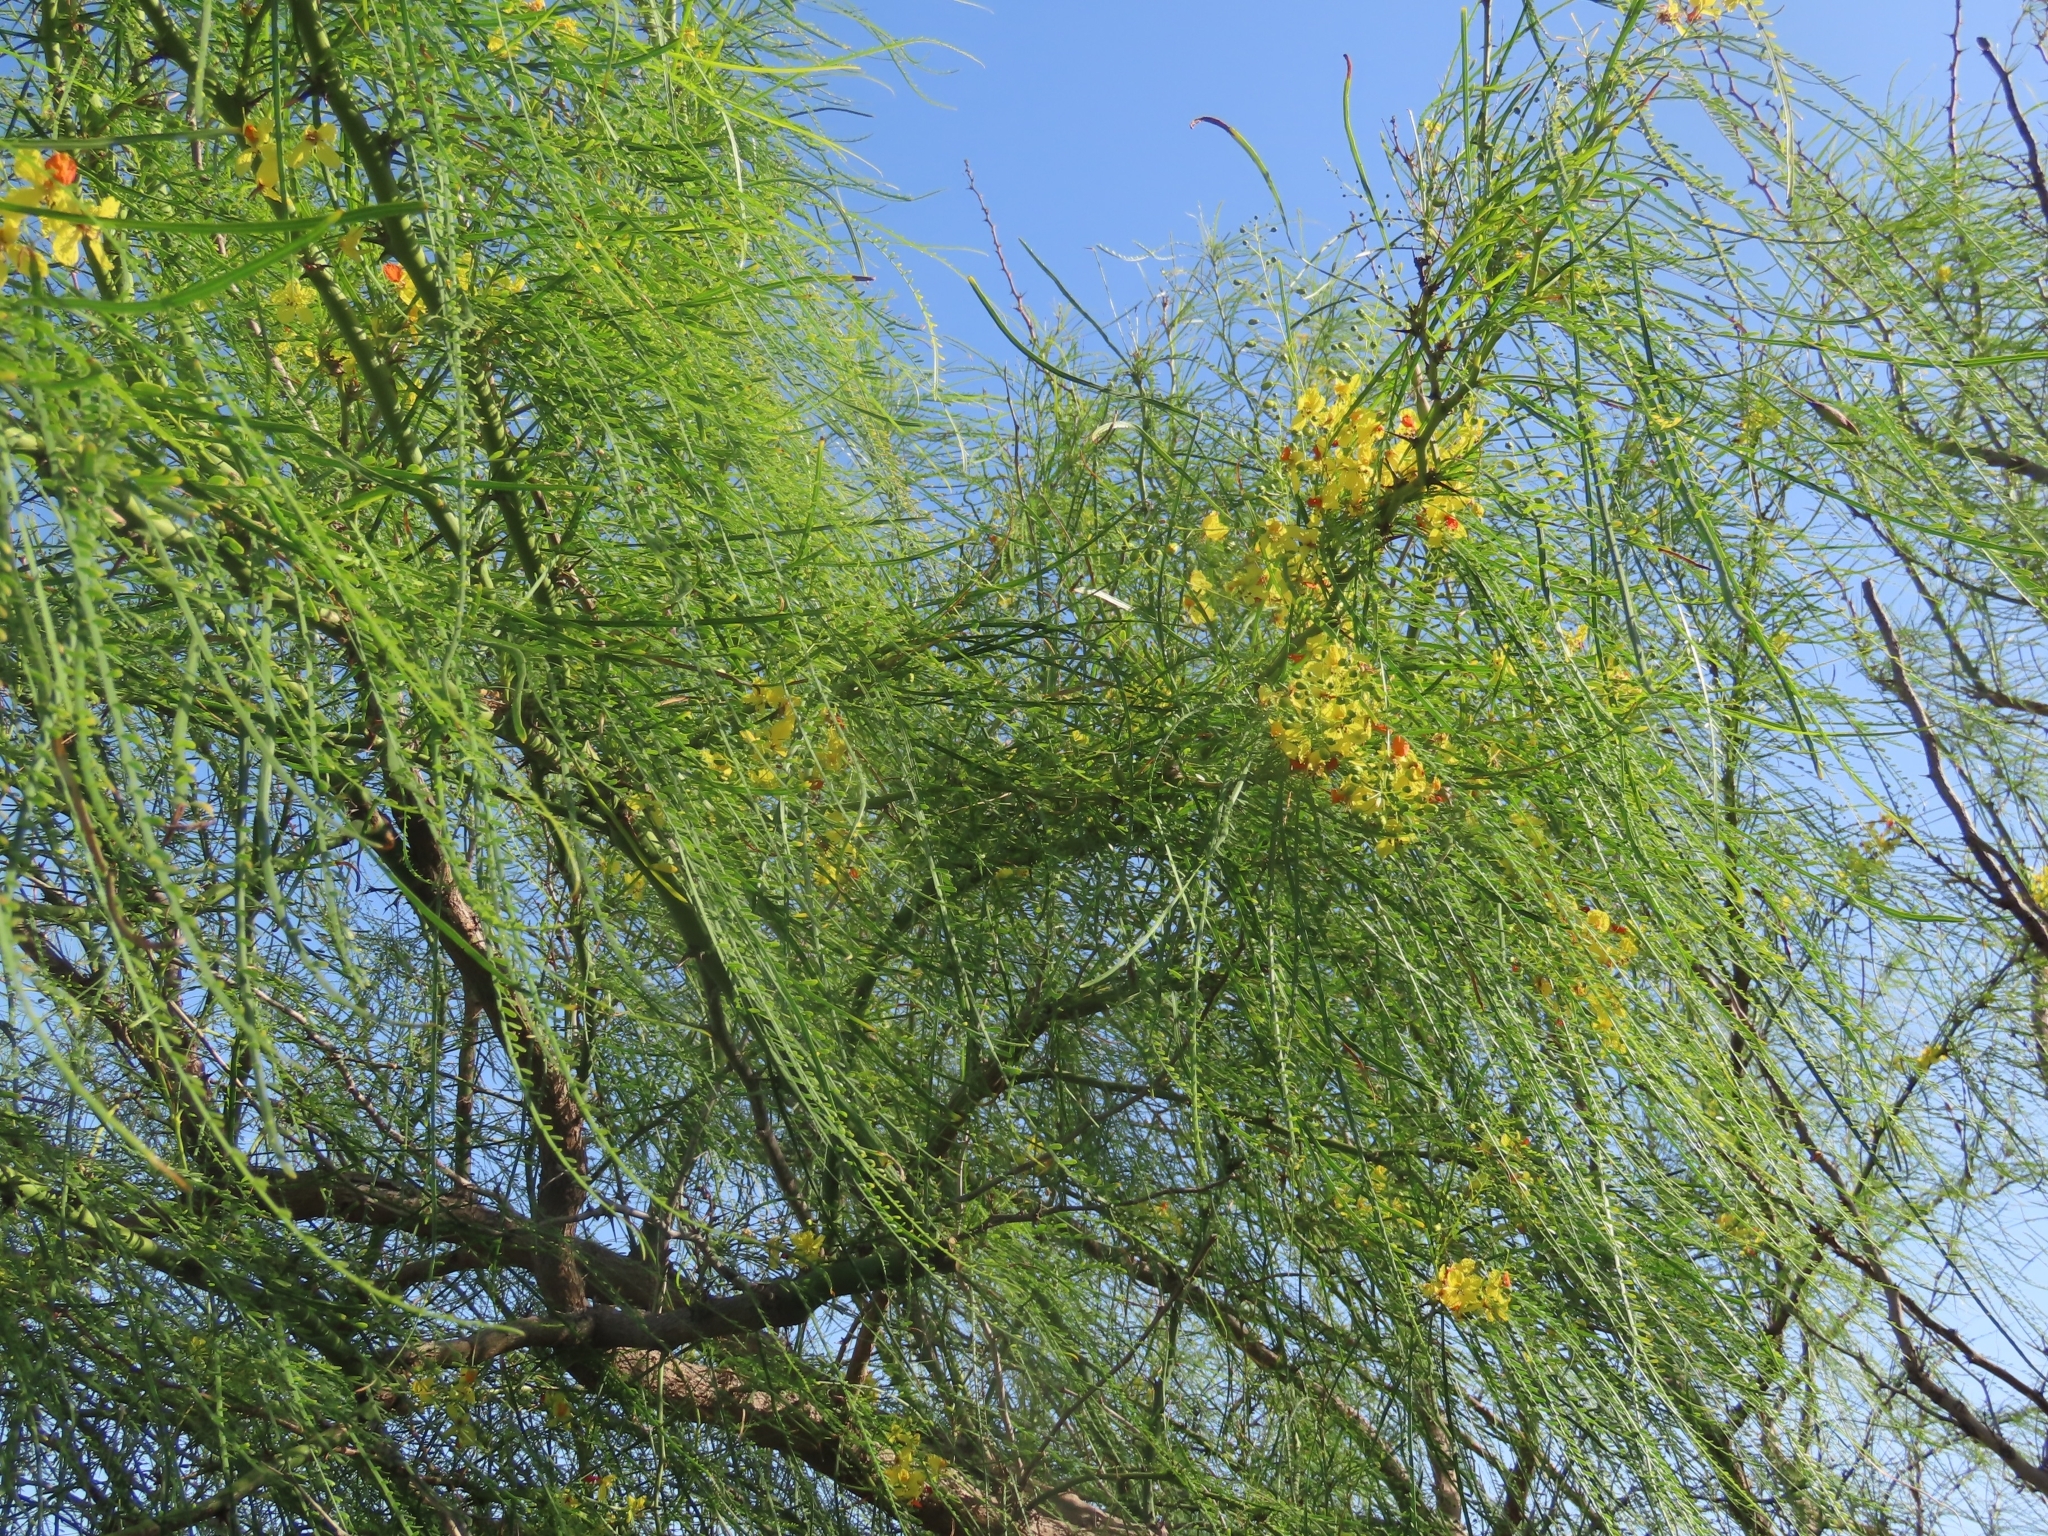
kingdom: Plantae
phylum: Tracheophyta
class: Magnoliopsida
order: Fabales
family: Fabaceae
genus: Parkinsonia
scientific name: Parkinsonia aculeata
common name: Jerusalem thorn
